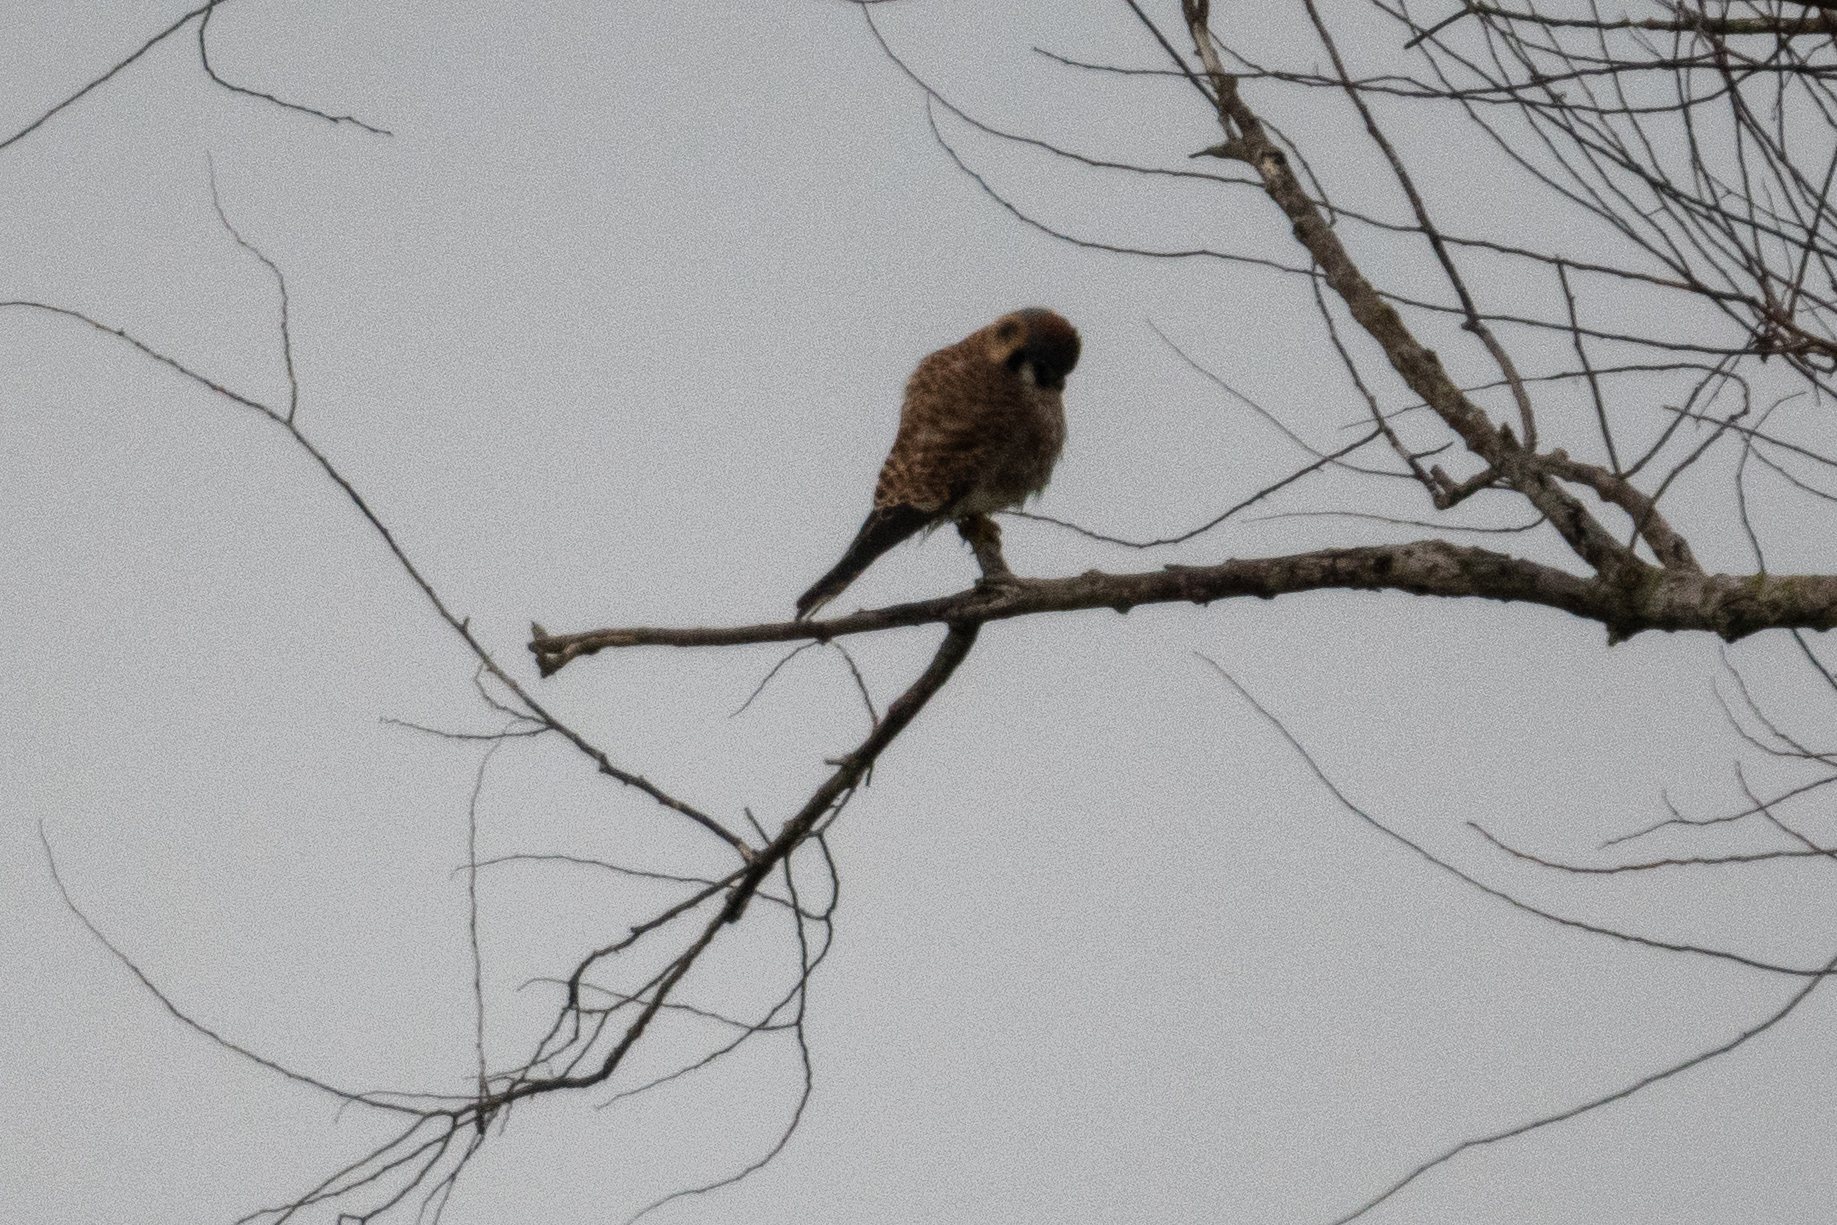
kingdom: Animalia
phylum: Chordata
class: Aves
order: Falconiformes
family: Falconidae
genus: Falco
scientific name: Falco sparverius
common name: American kestrel
